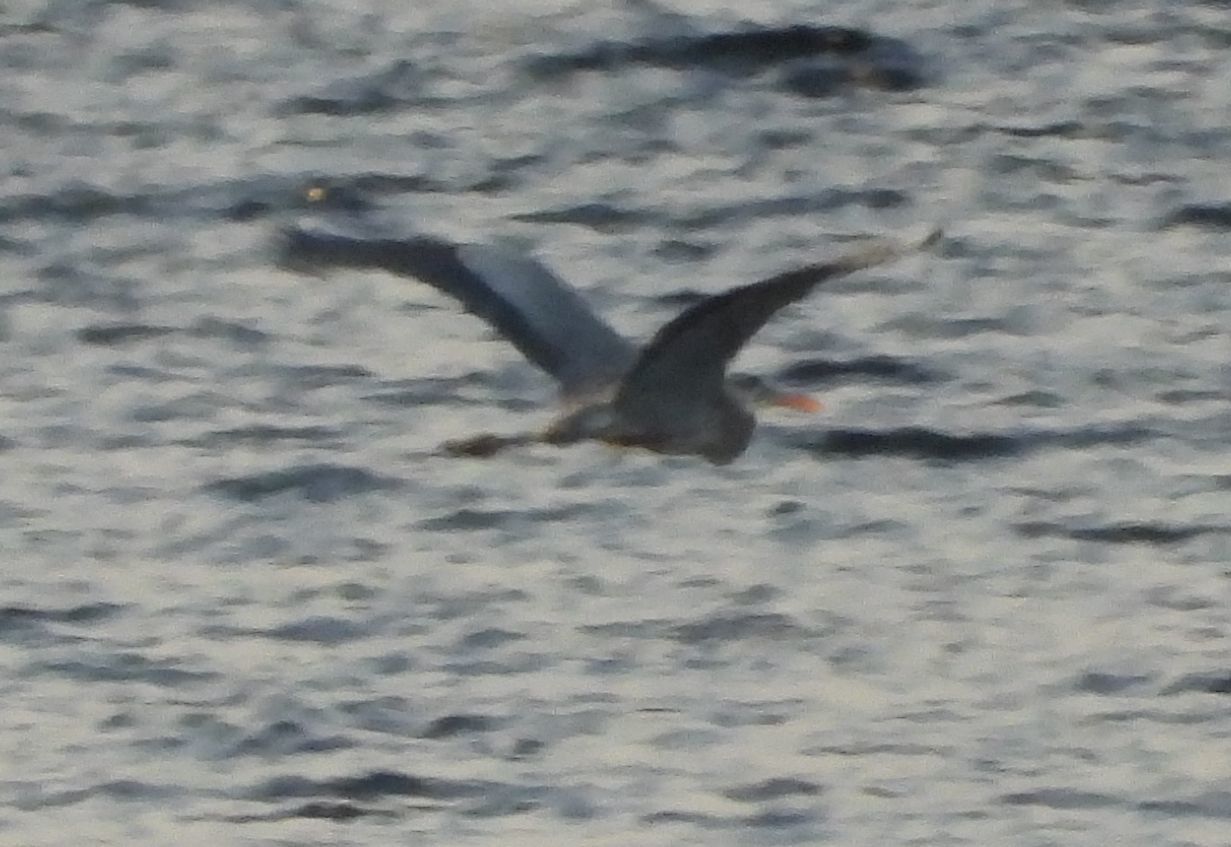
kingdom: Animalia
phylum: Chordata
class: Aves
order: Pelecaniformes
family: Ardeidae
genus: Ardea
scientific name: Ardea herodias
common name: Great blue heron
